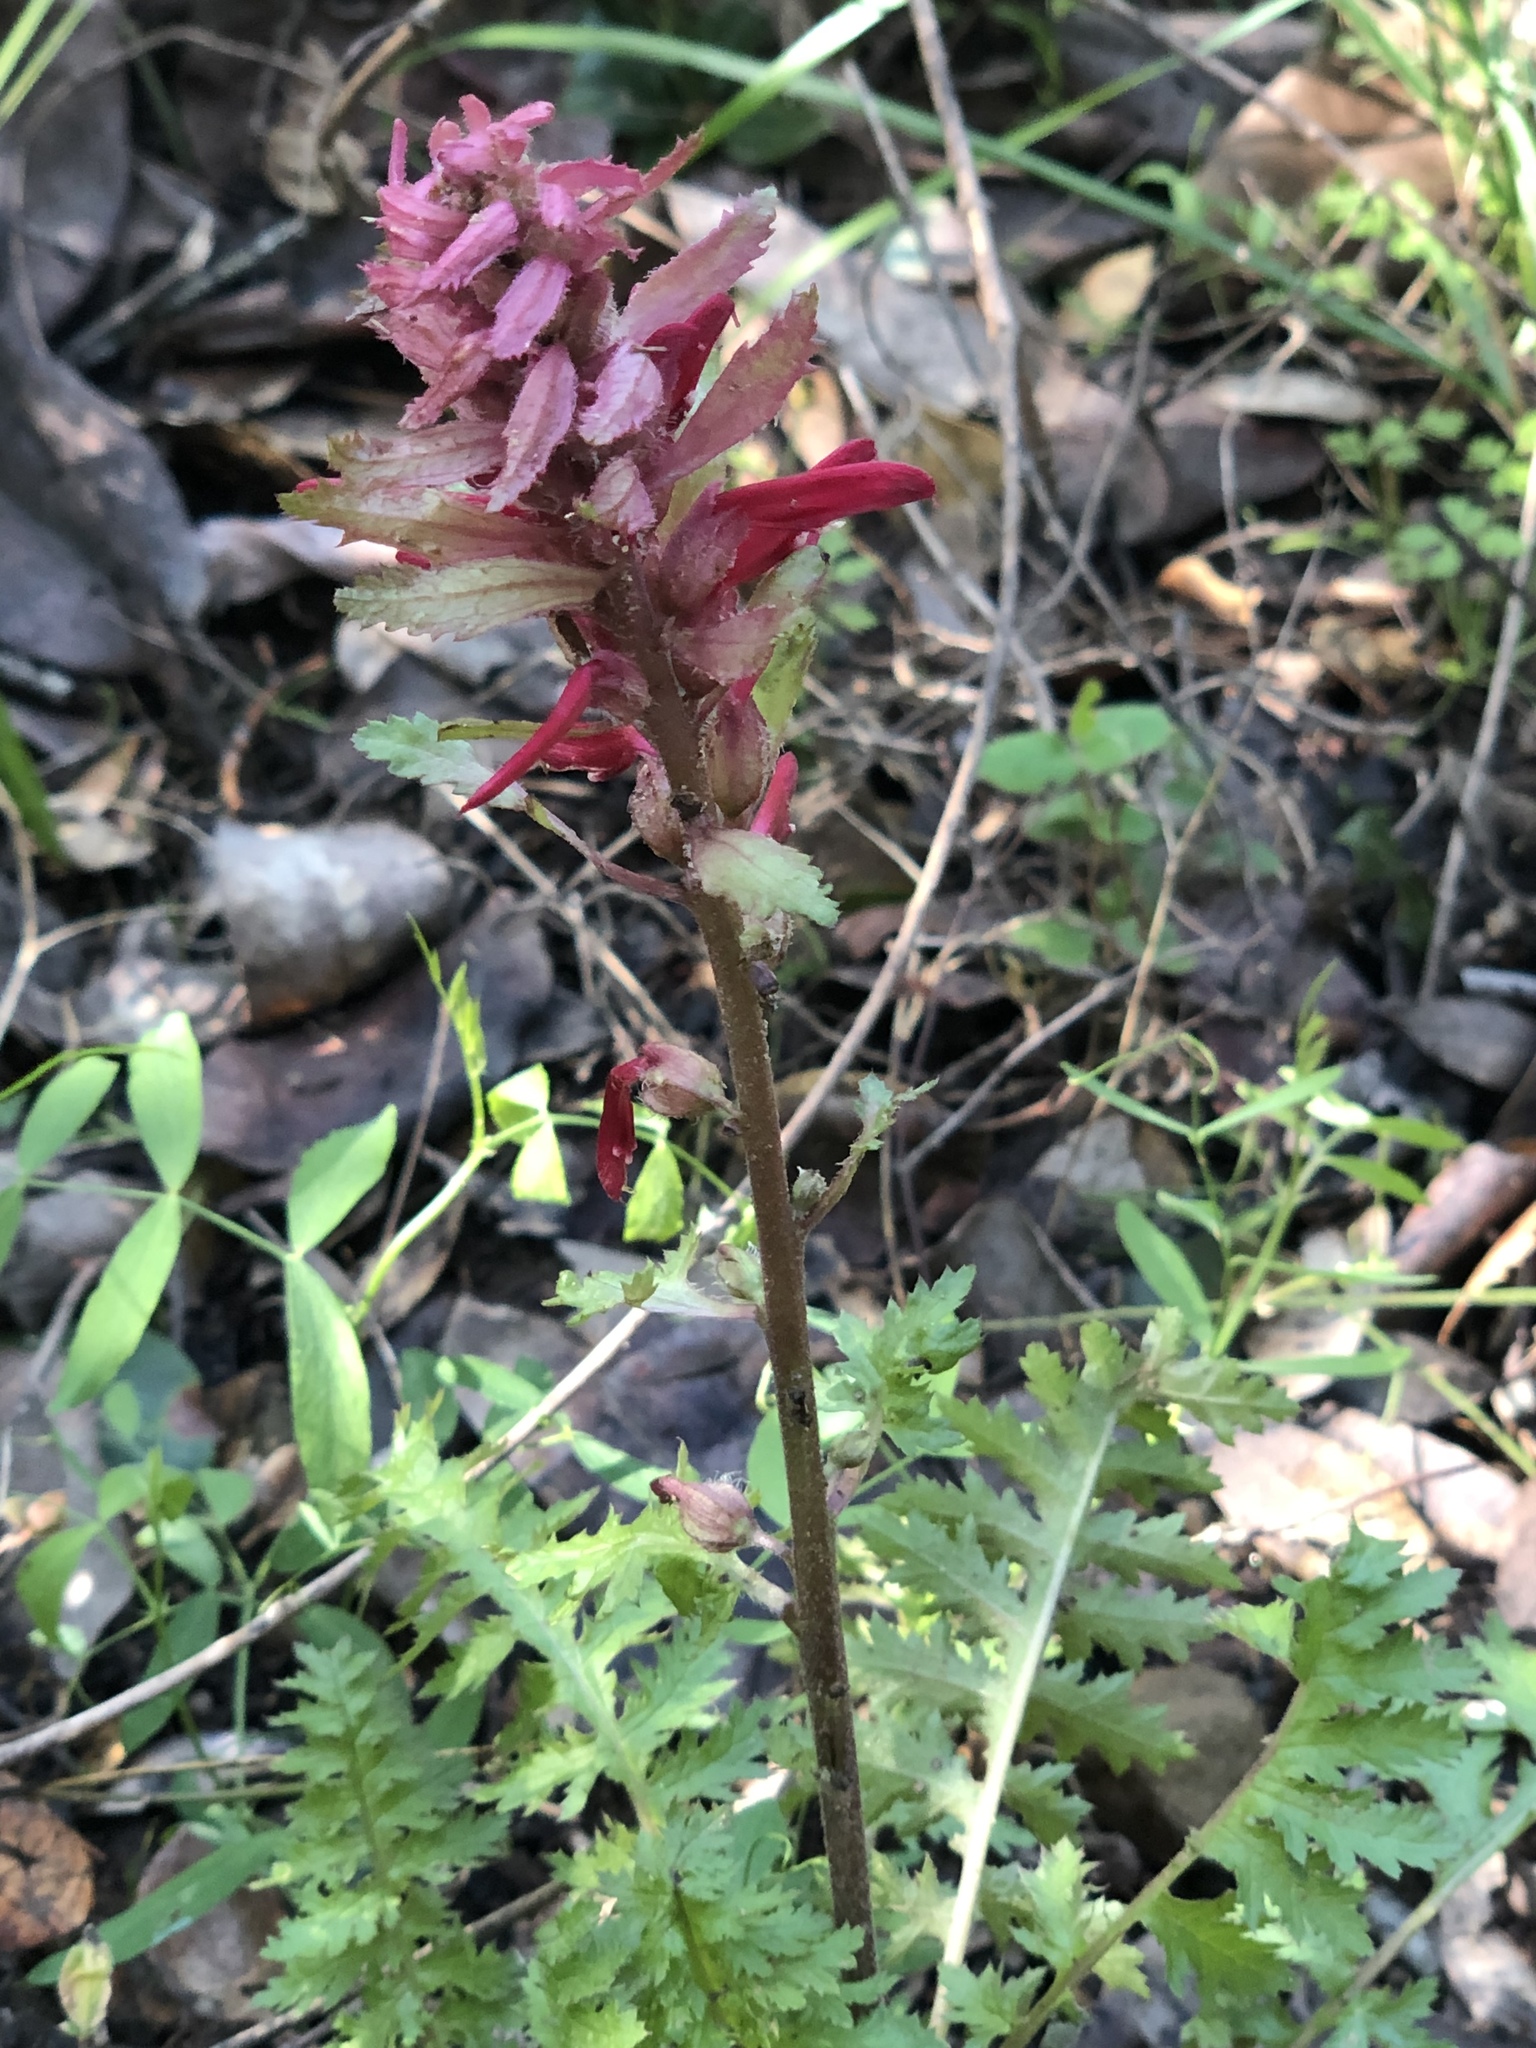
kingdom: Plantae
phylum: Tracheophyta
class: Magnoliopsida
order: Lamiales
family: Orobanchaceae
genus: Pedicularis
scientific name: Pedicularis densiflora
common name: Indian warrior
